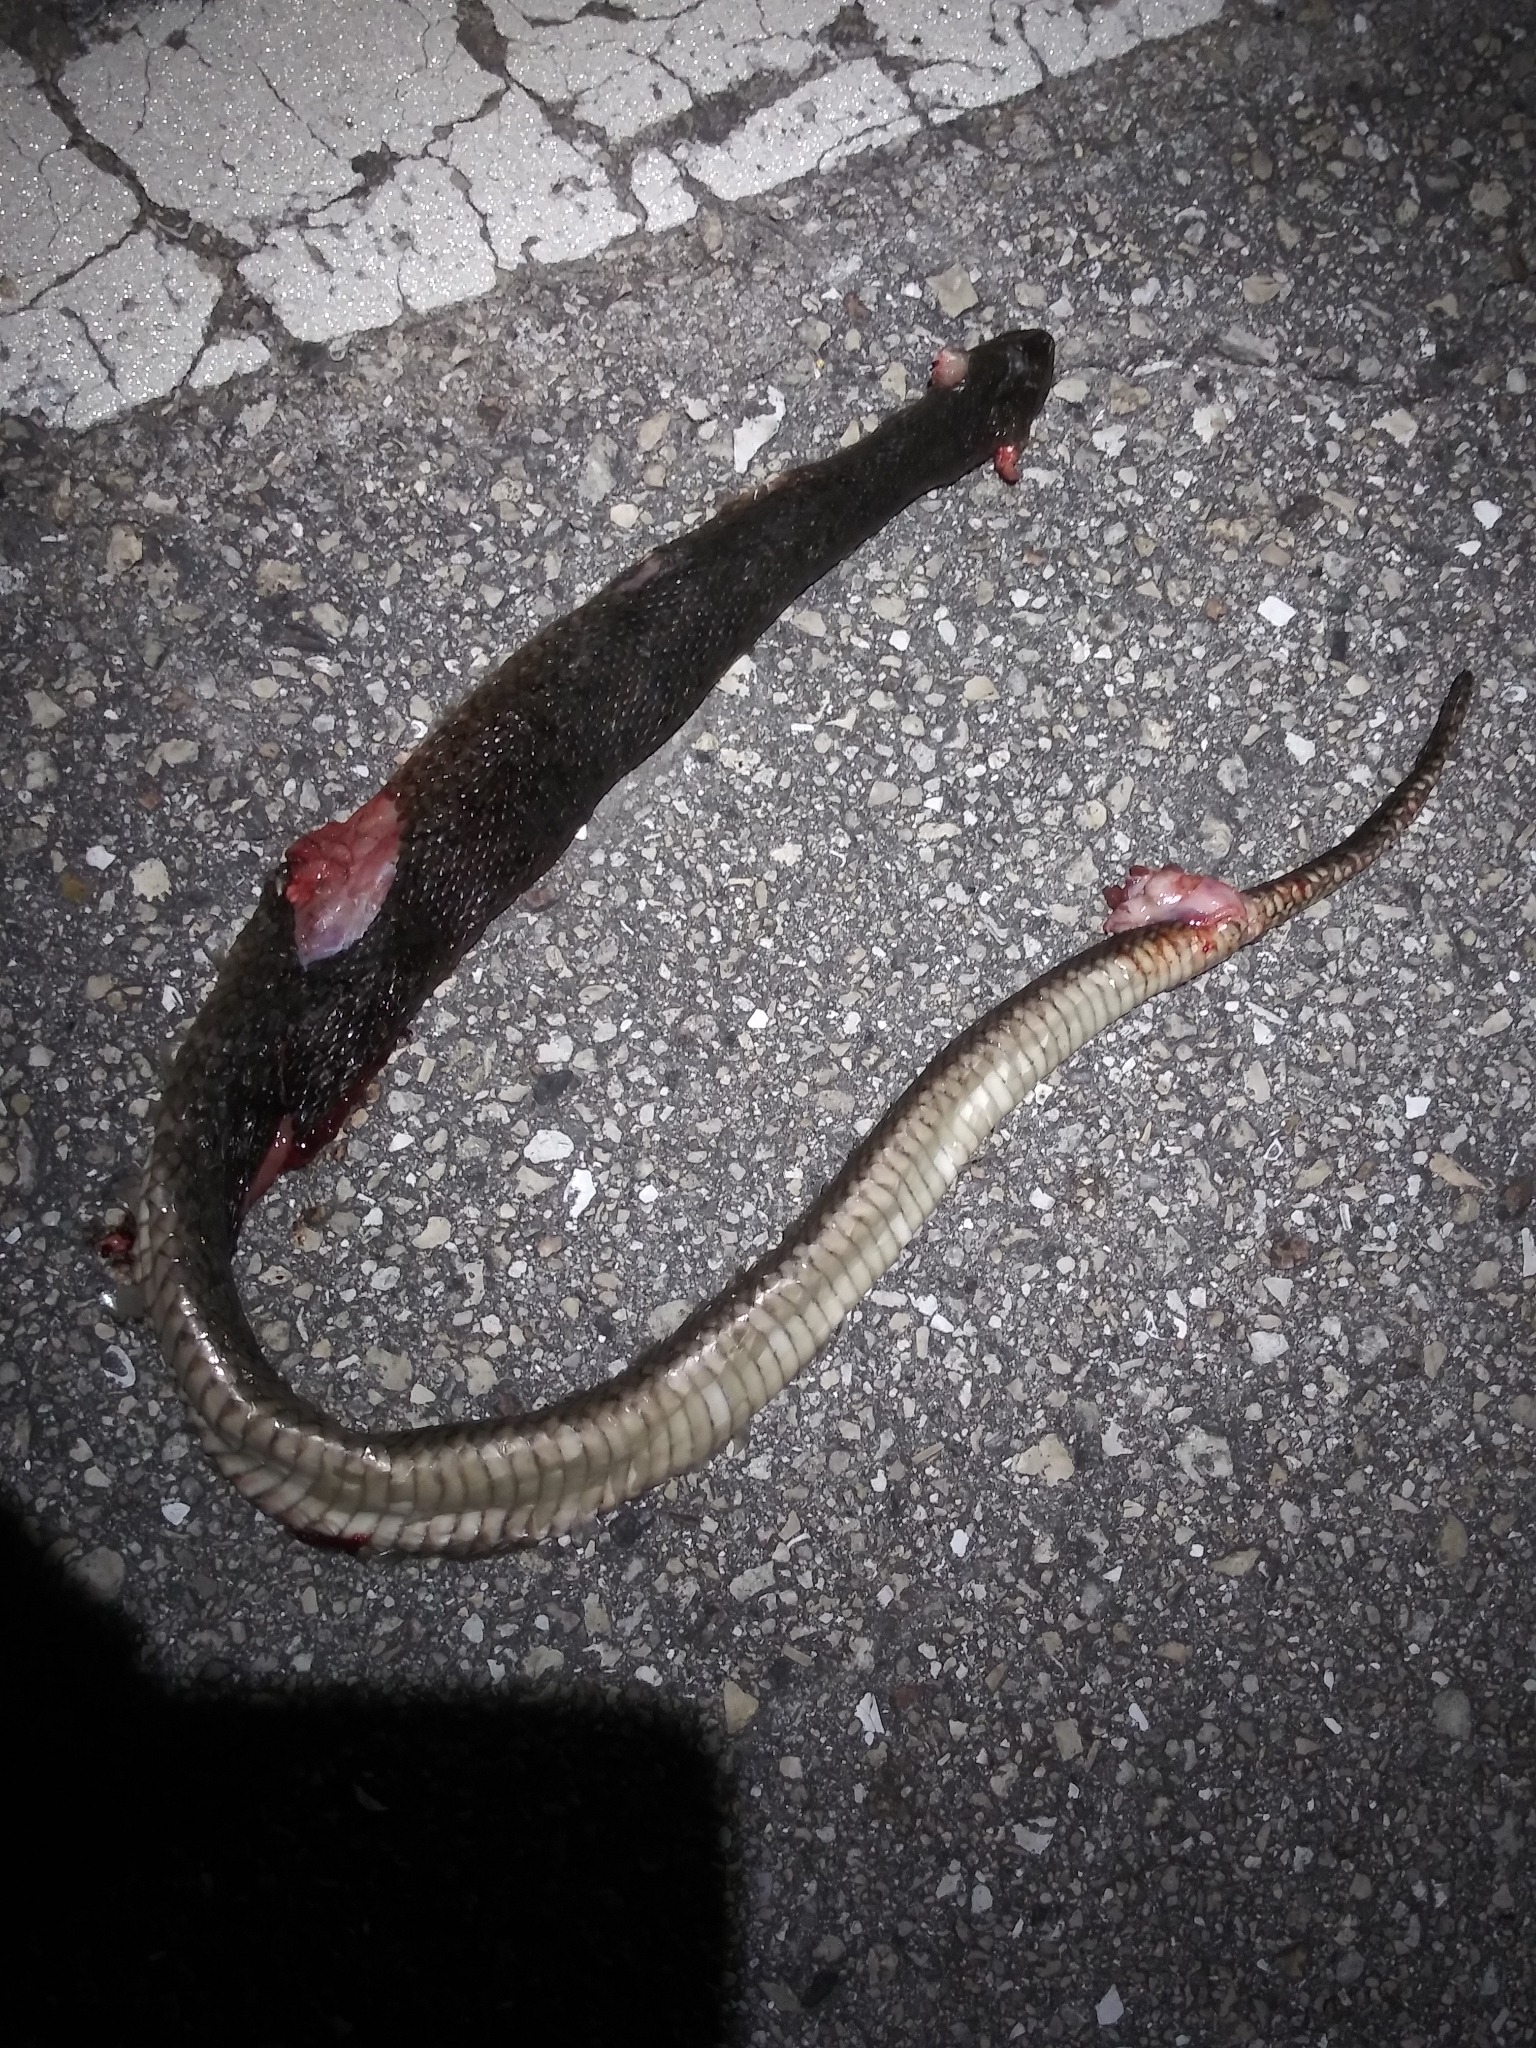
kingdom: Animalia
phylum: Chordata
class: Squamata
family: Colubridae
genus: Nerodia
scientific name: Nerodia floridana
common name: Florida green watersnake
